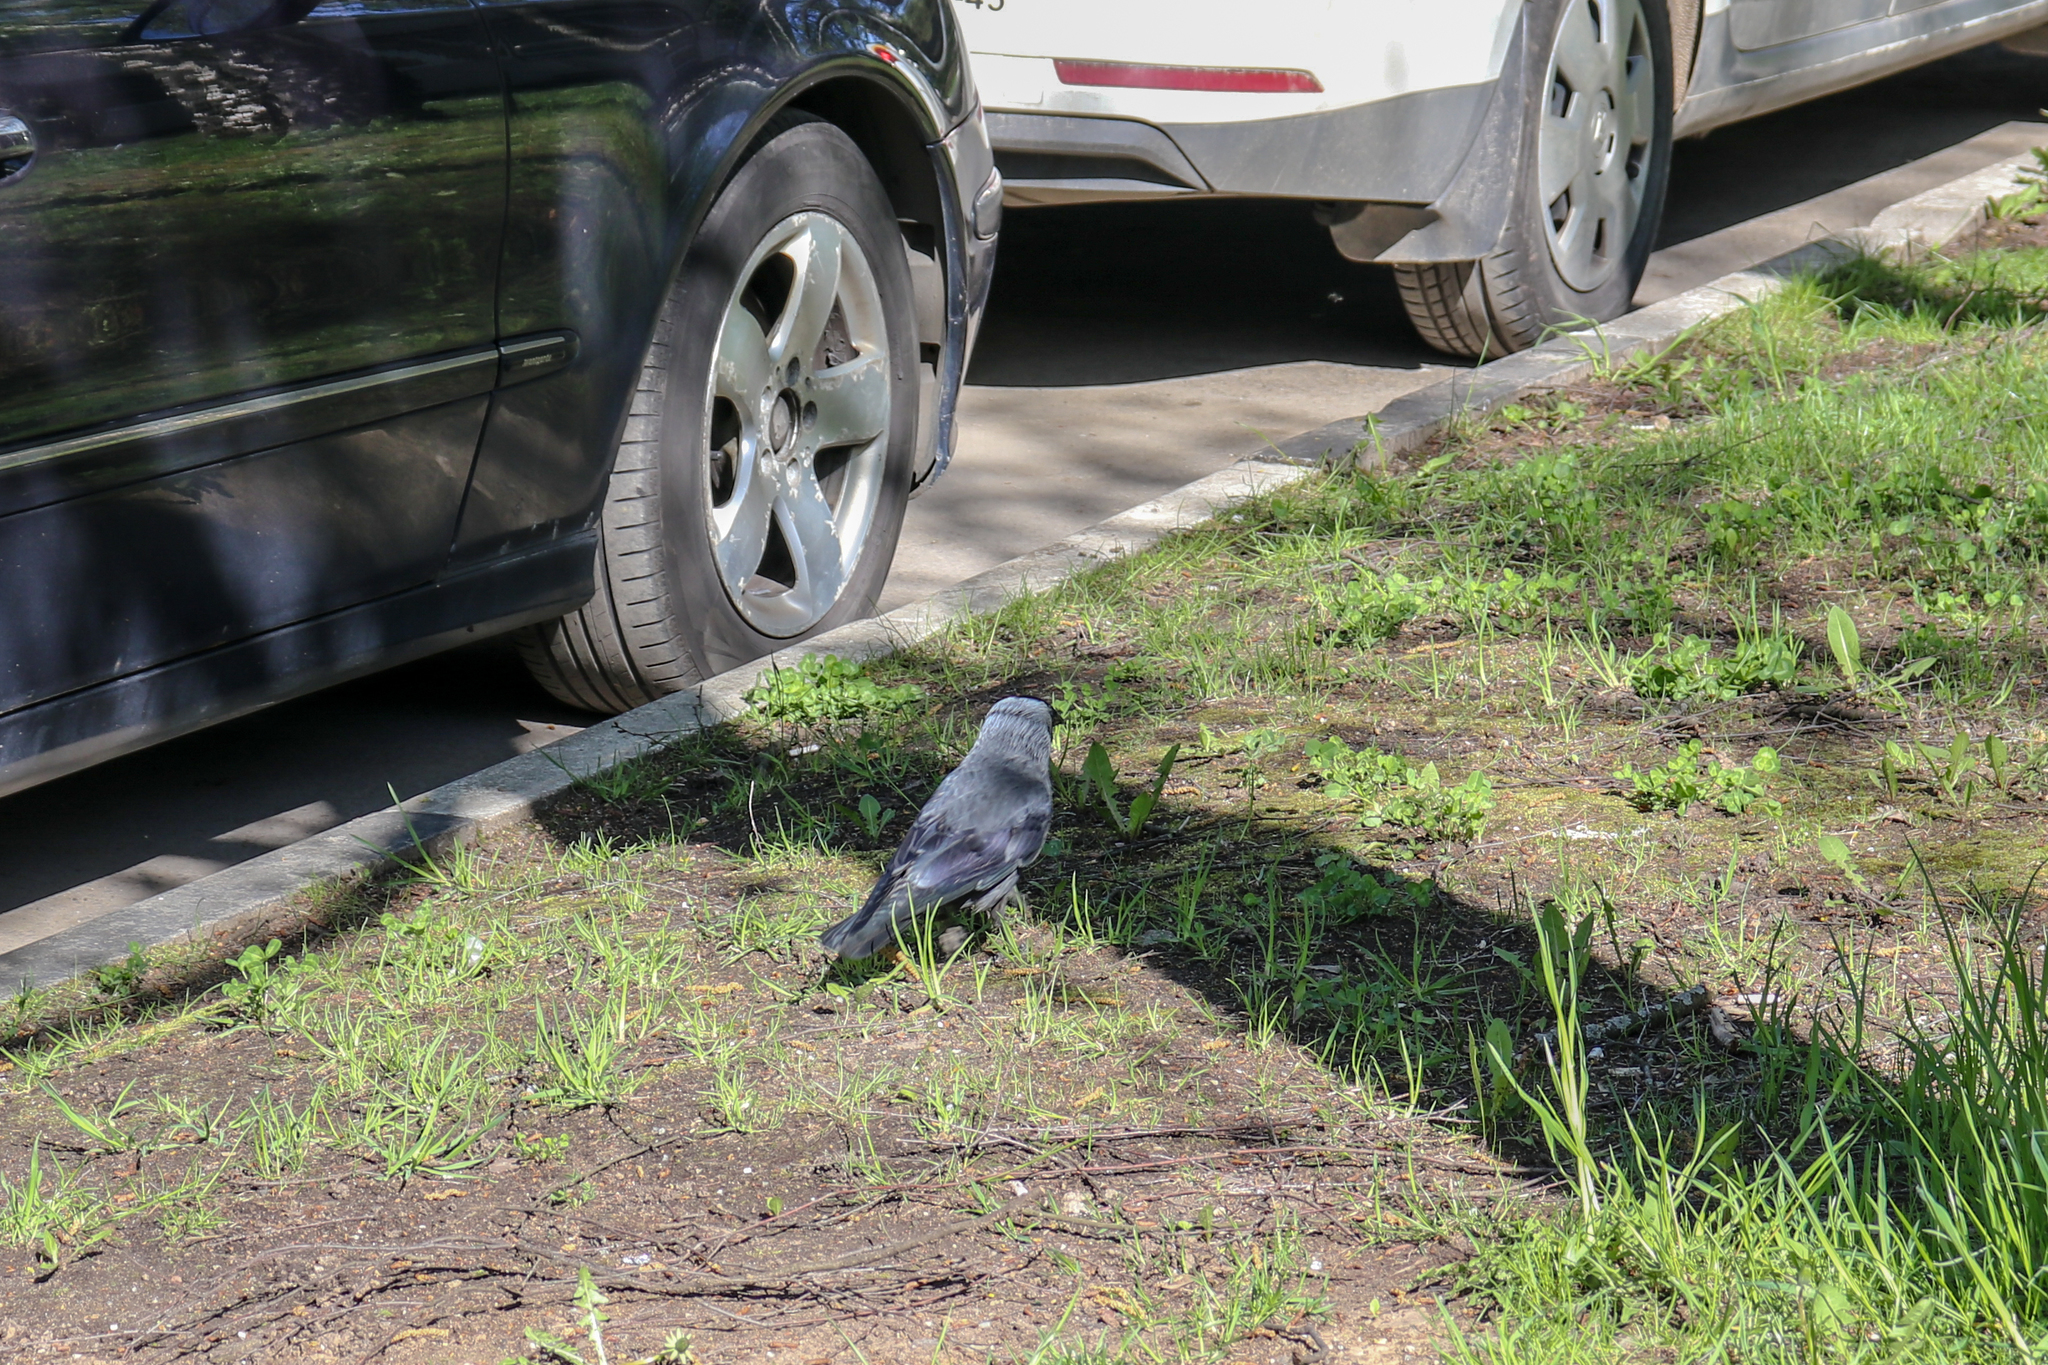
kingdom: Animalia
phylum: Chordata
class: Aves
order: Passeriformes
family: Corvidae
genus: Coloeus
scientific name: Coloeus monedula
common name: Western jackdaw
